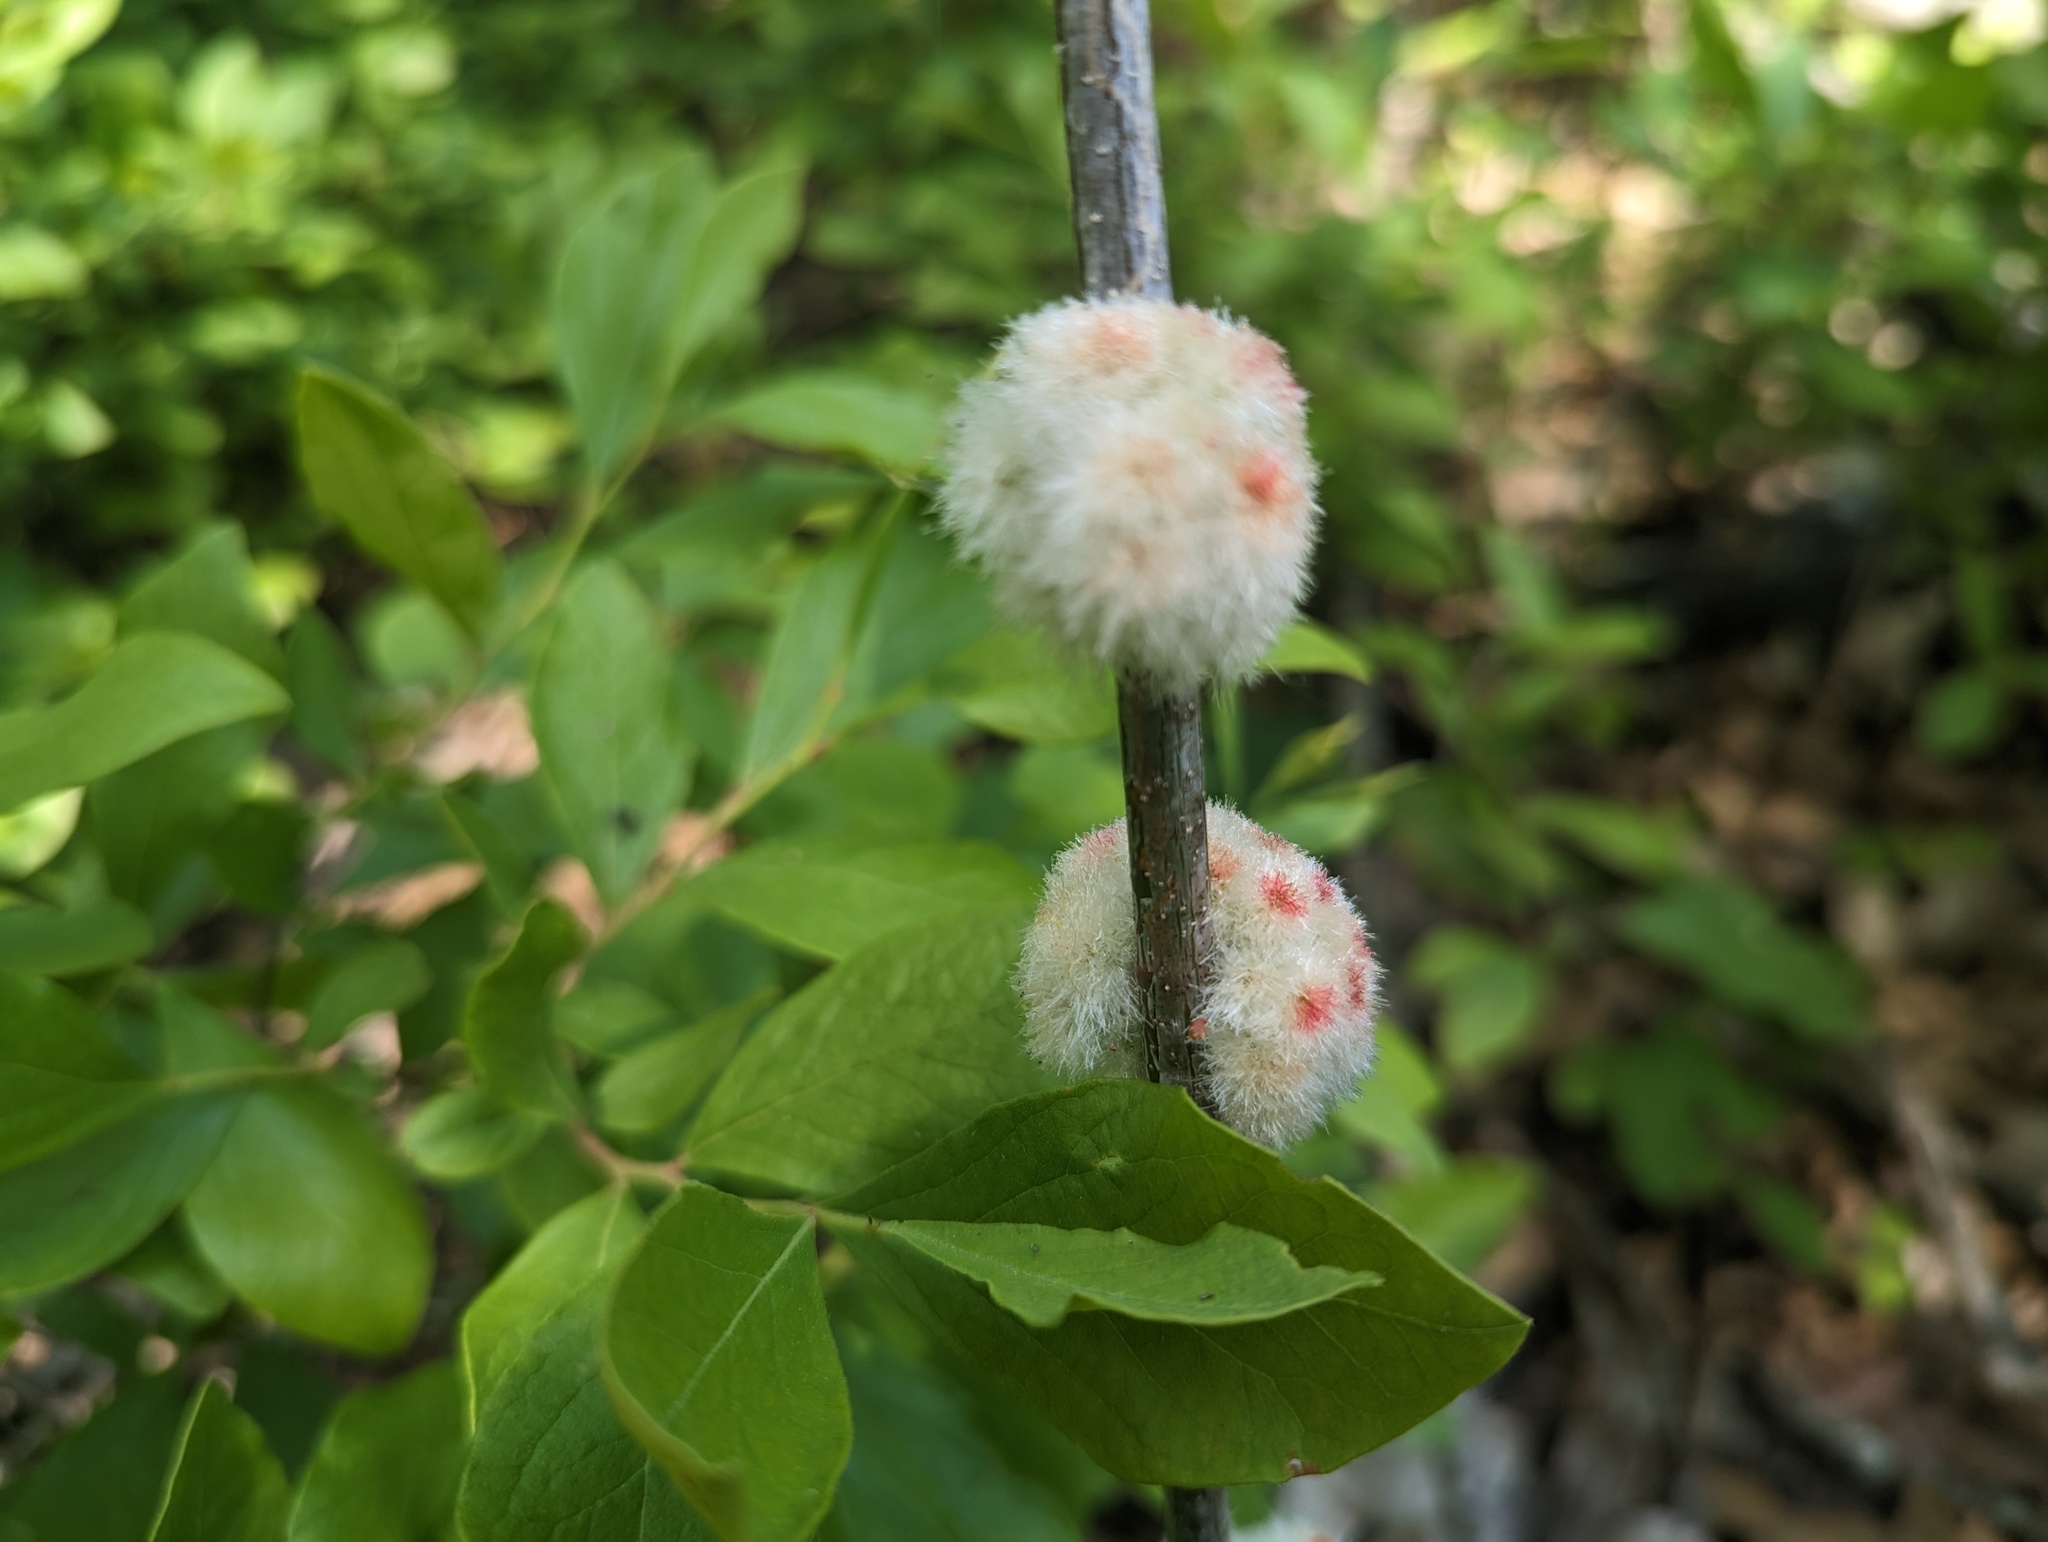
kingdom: Animalia
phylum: Arthropoda
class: Insecta
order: Hymenoptera
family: Cynipidae
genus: Callirhytis
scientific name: Callirhytis
